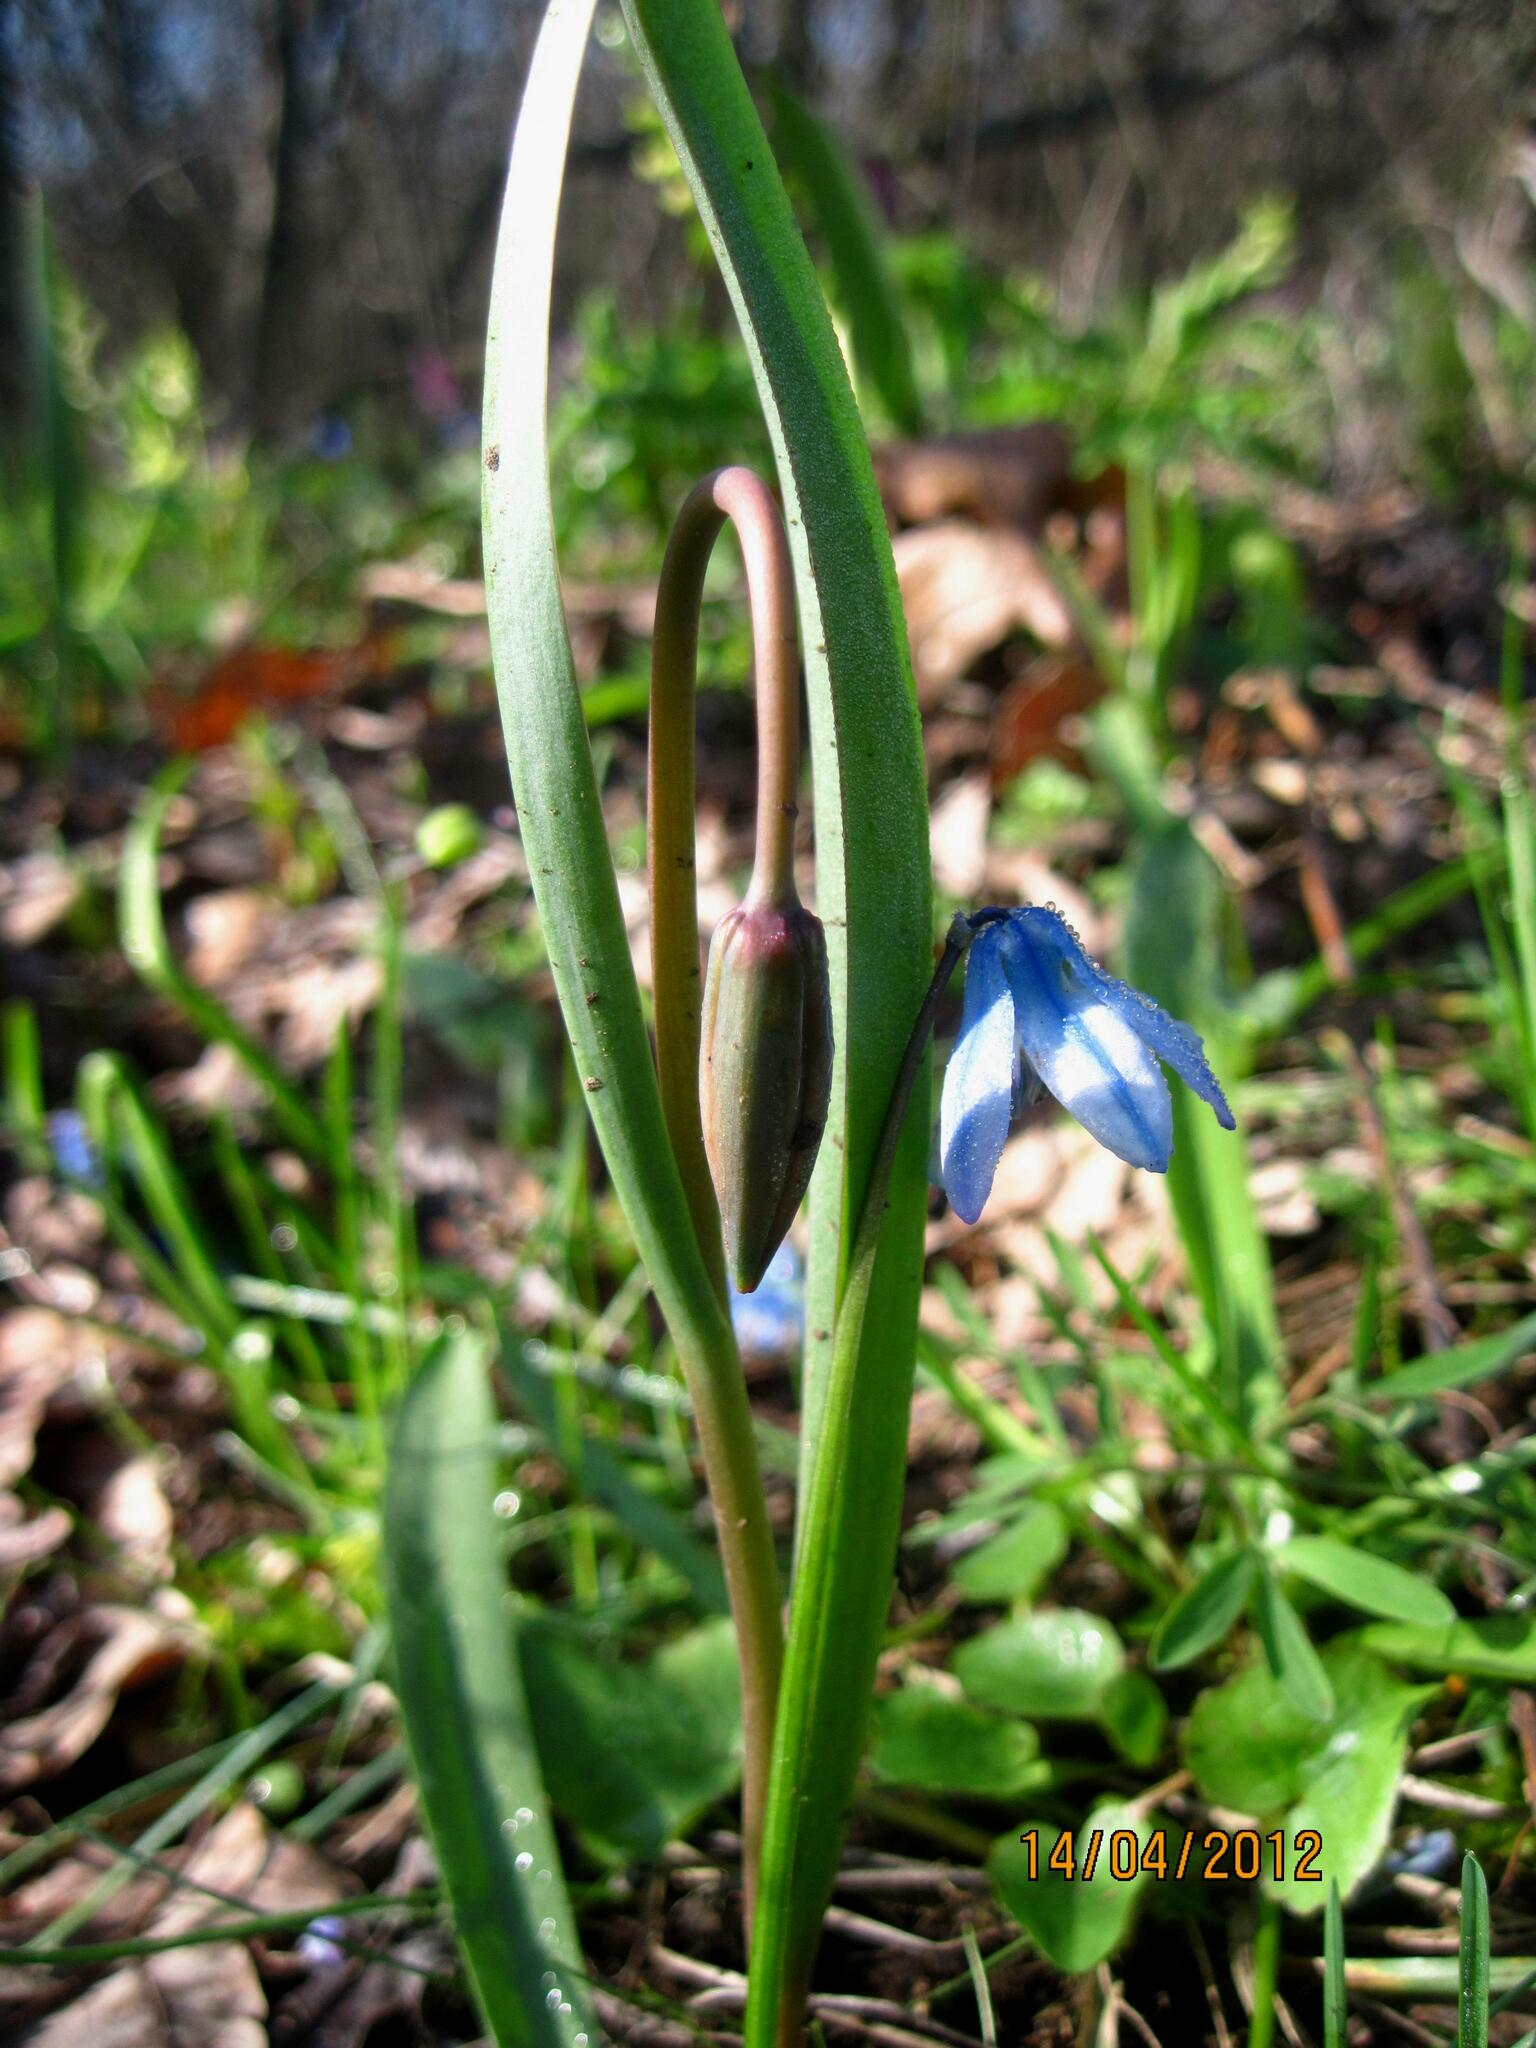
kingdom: Plantae
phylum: Tracheophyta
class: Liliopsida
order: Asparagales
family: Asparagaceae
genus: Scilla
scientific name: Scilla siberica
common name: Siberian squill
